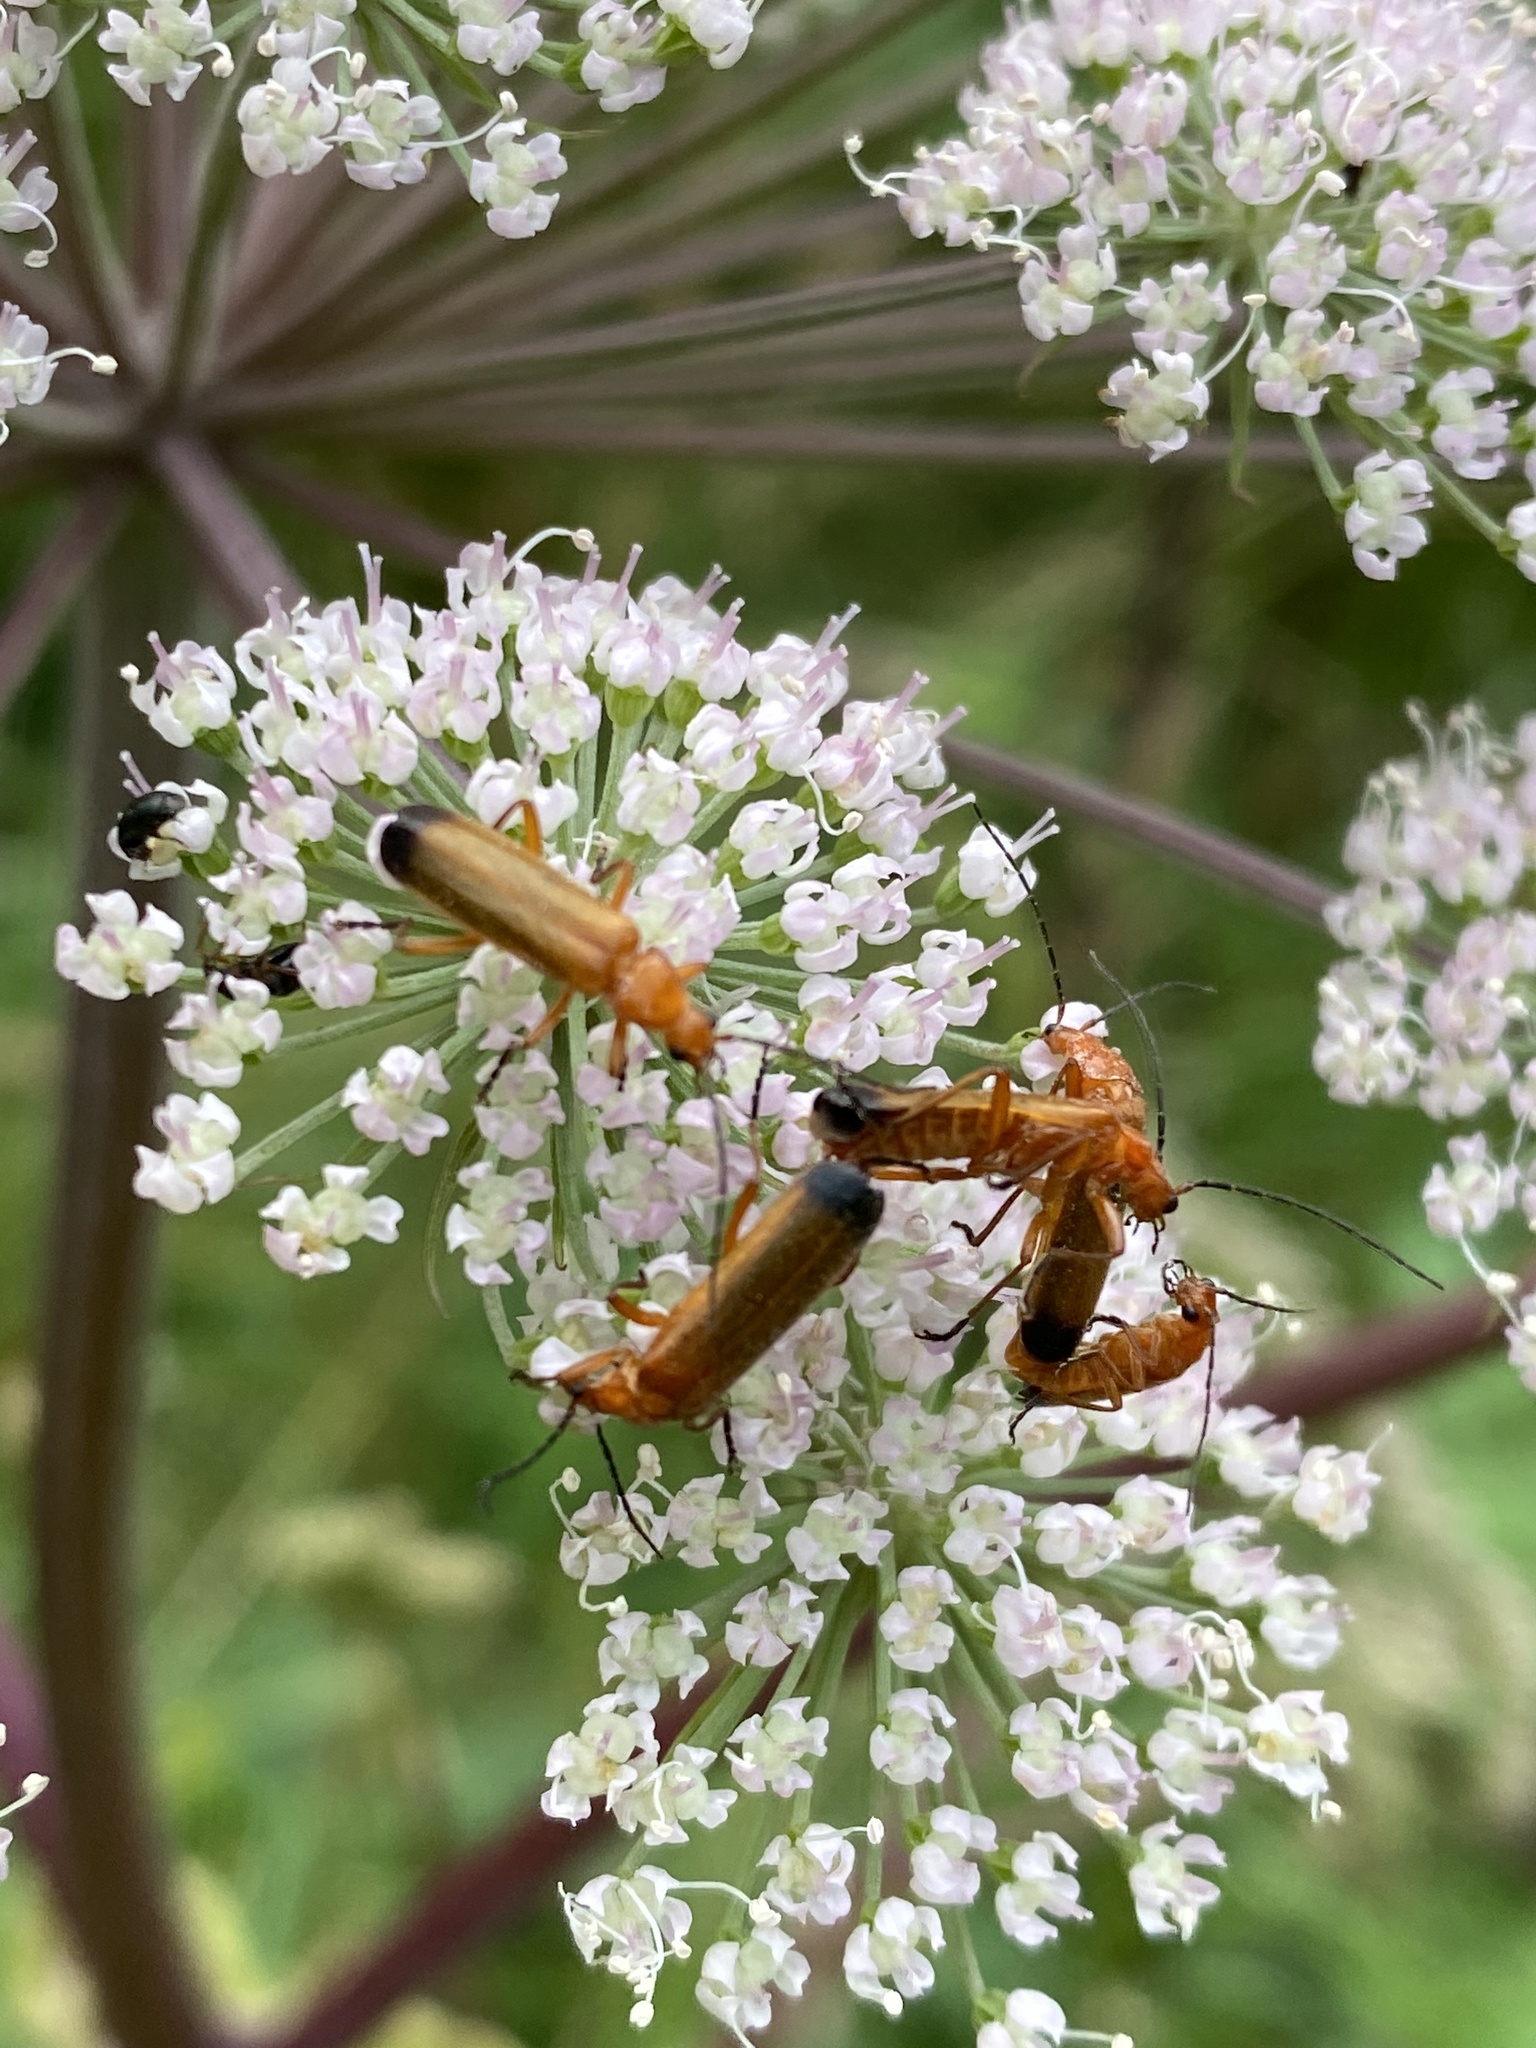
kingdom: Animalia
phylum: Arthropoda
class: Insecta
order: Coleoptera
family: Cantharidae
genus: Rhagonycha
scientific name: Rhagonycha fulva
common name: Common red soldier beetle
